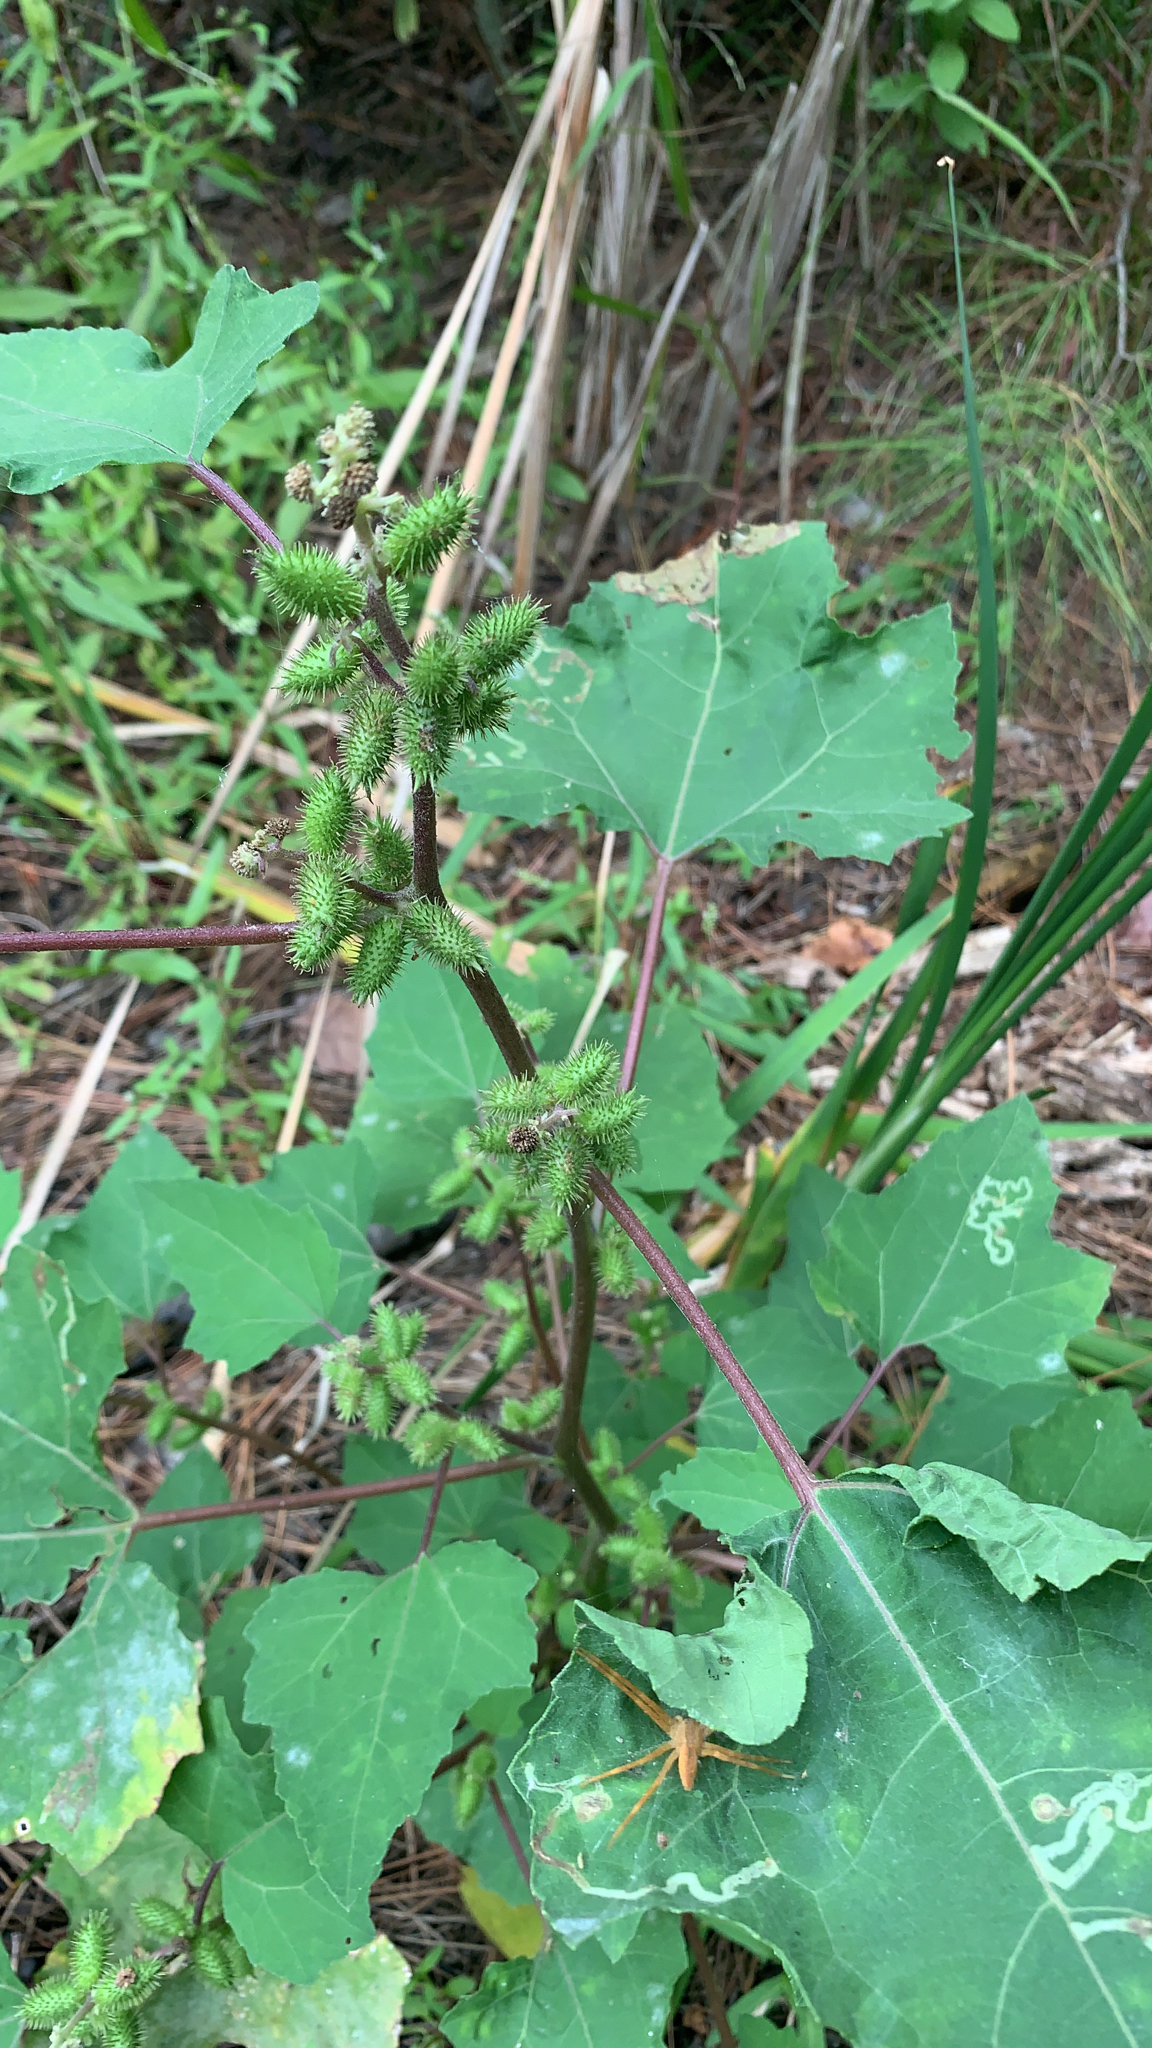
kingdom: Plantae
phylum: Tracheophyta
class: Magnoliopsida
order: Asterales
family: Asteraceae
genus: Xanthium
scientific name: Xanthium strumarium
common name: Rough cocklebur
